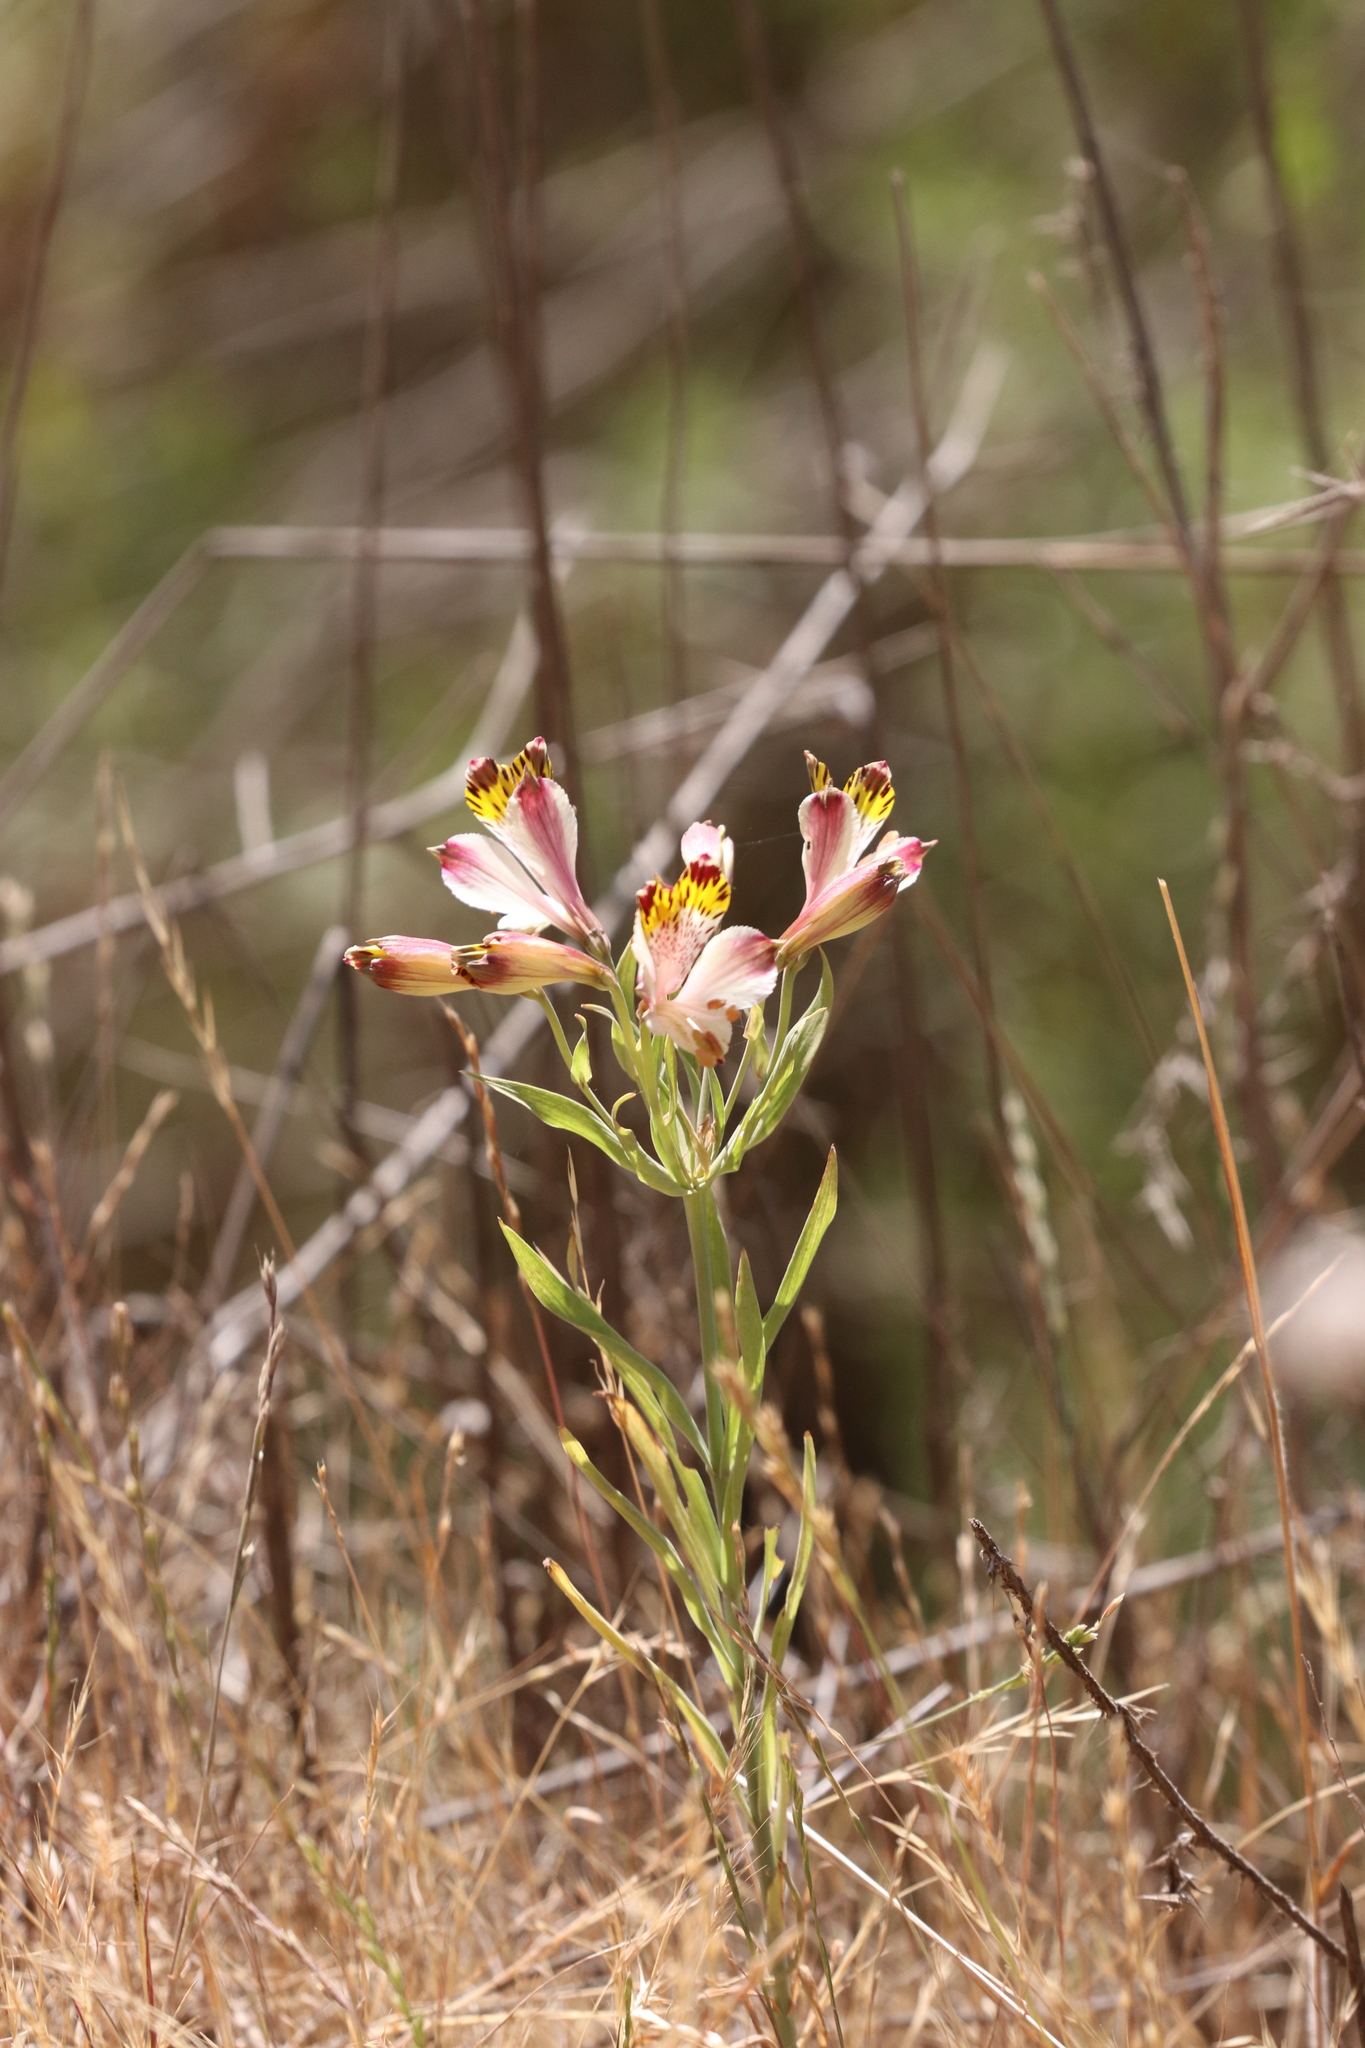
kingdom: Plantae
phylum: Tracheophyta
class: Liliopsida
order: Liliales
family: Alstroemeriaceae
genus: Alstroemeria
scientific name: Alstroemeria pulchra
